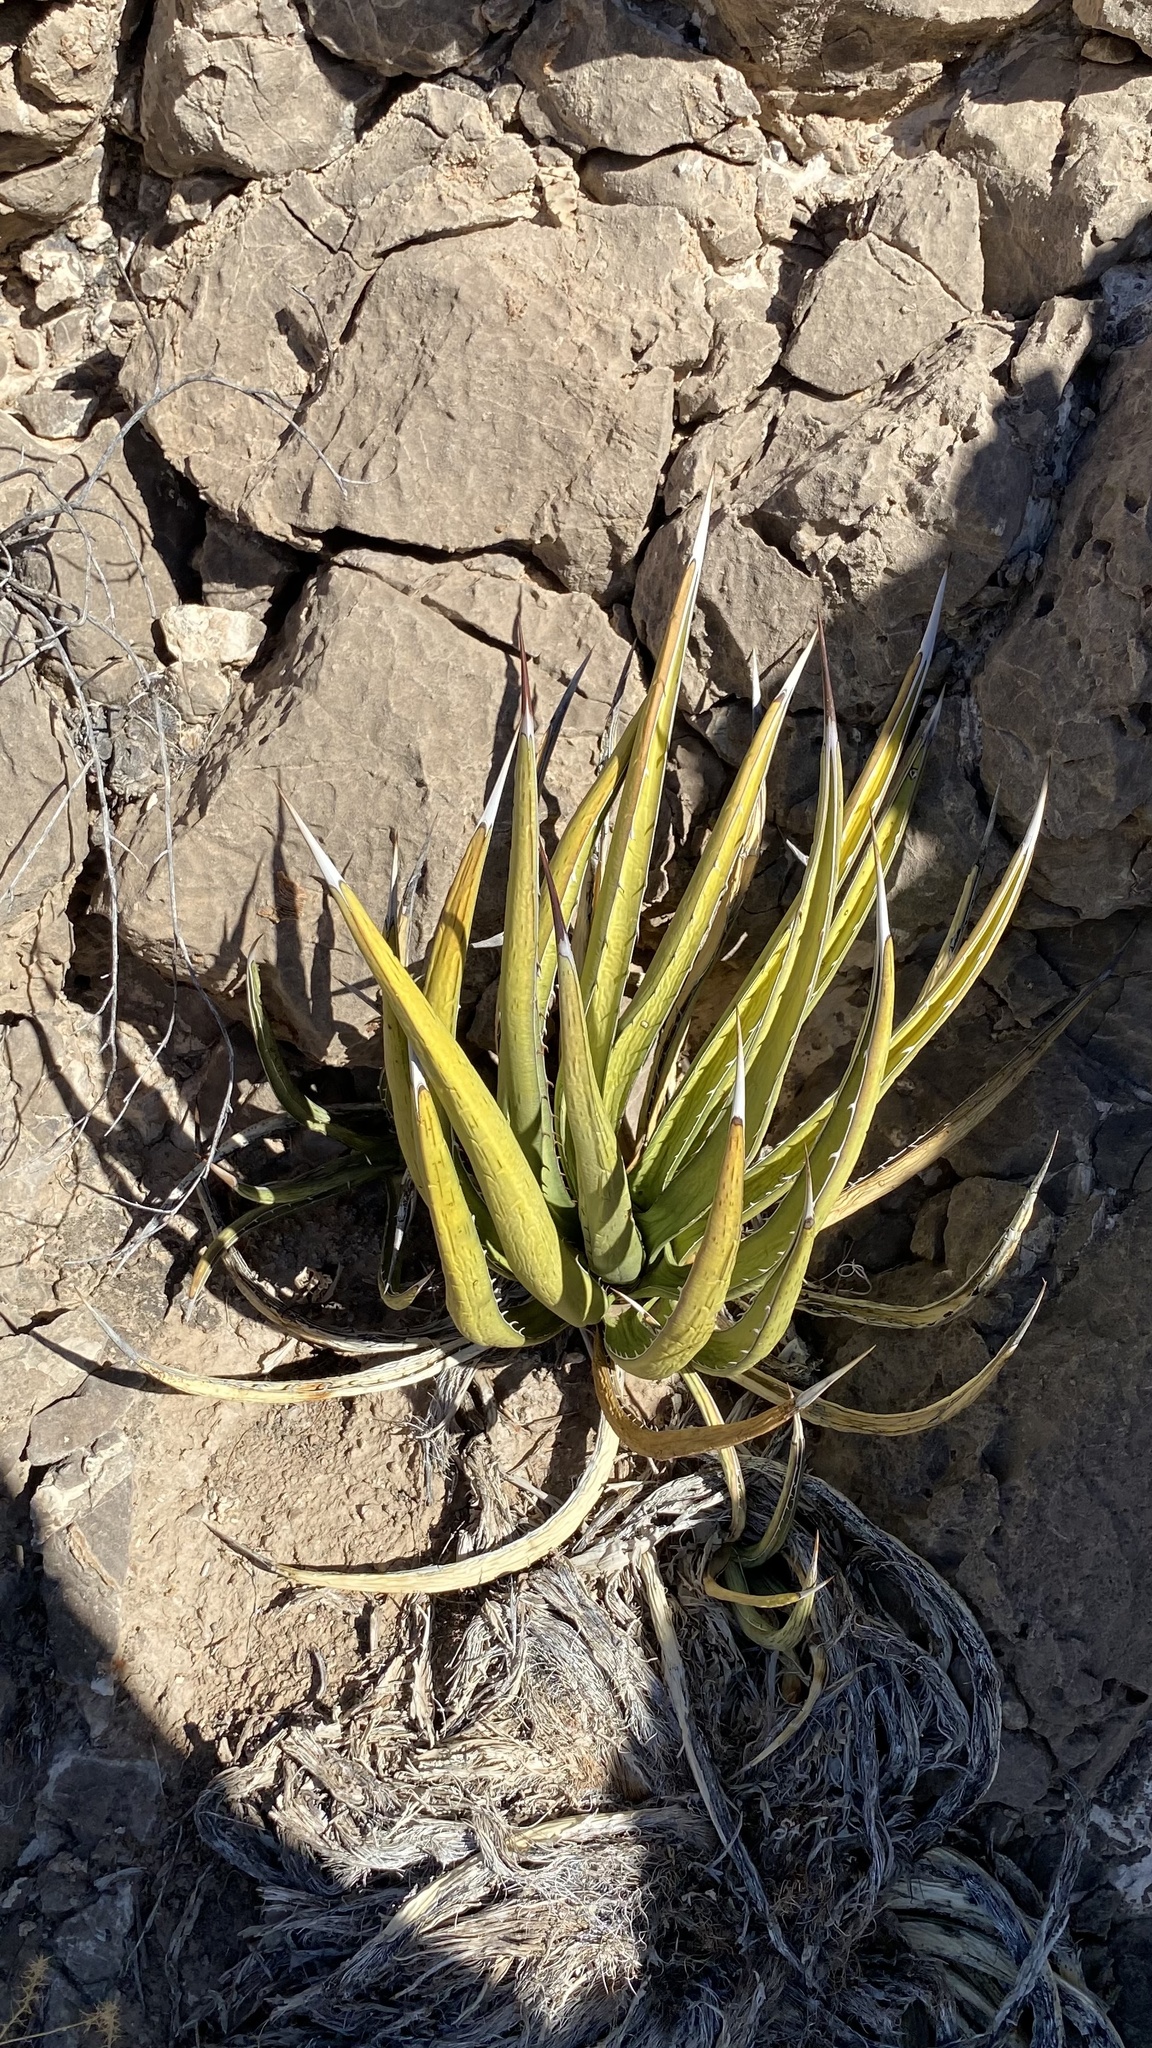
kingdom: Plantae
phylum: Tracheophyta
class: Liliopsida
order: Asparagales
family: Asparagaceae
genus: Agave
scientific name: Agave lechuguilla
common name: Lecheguilla agave
